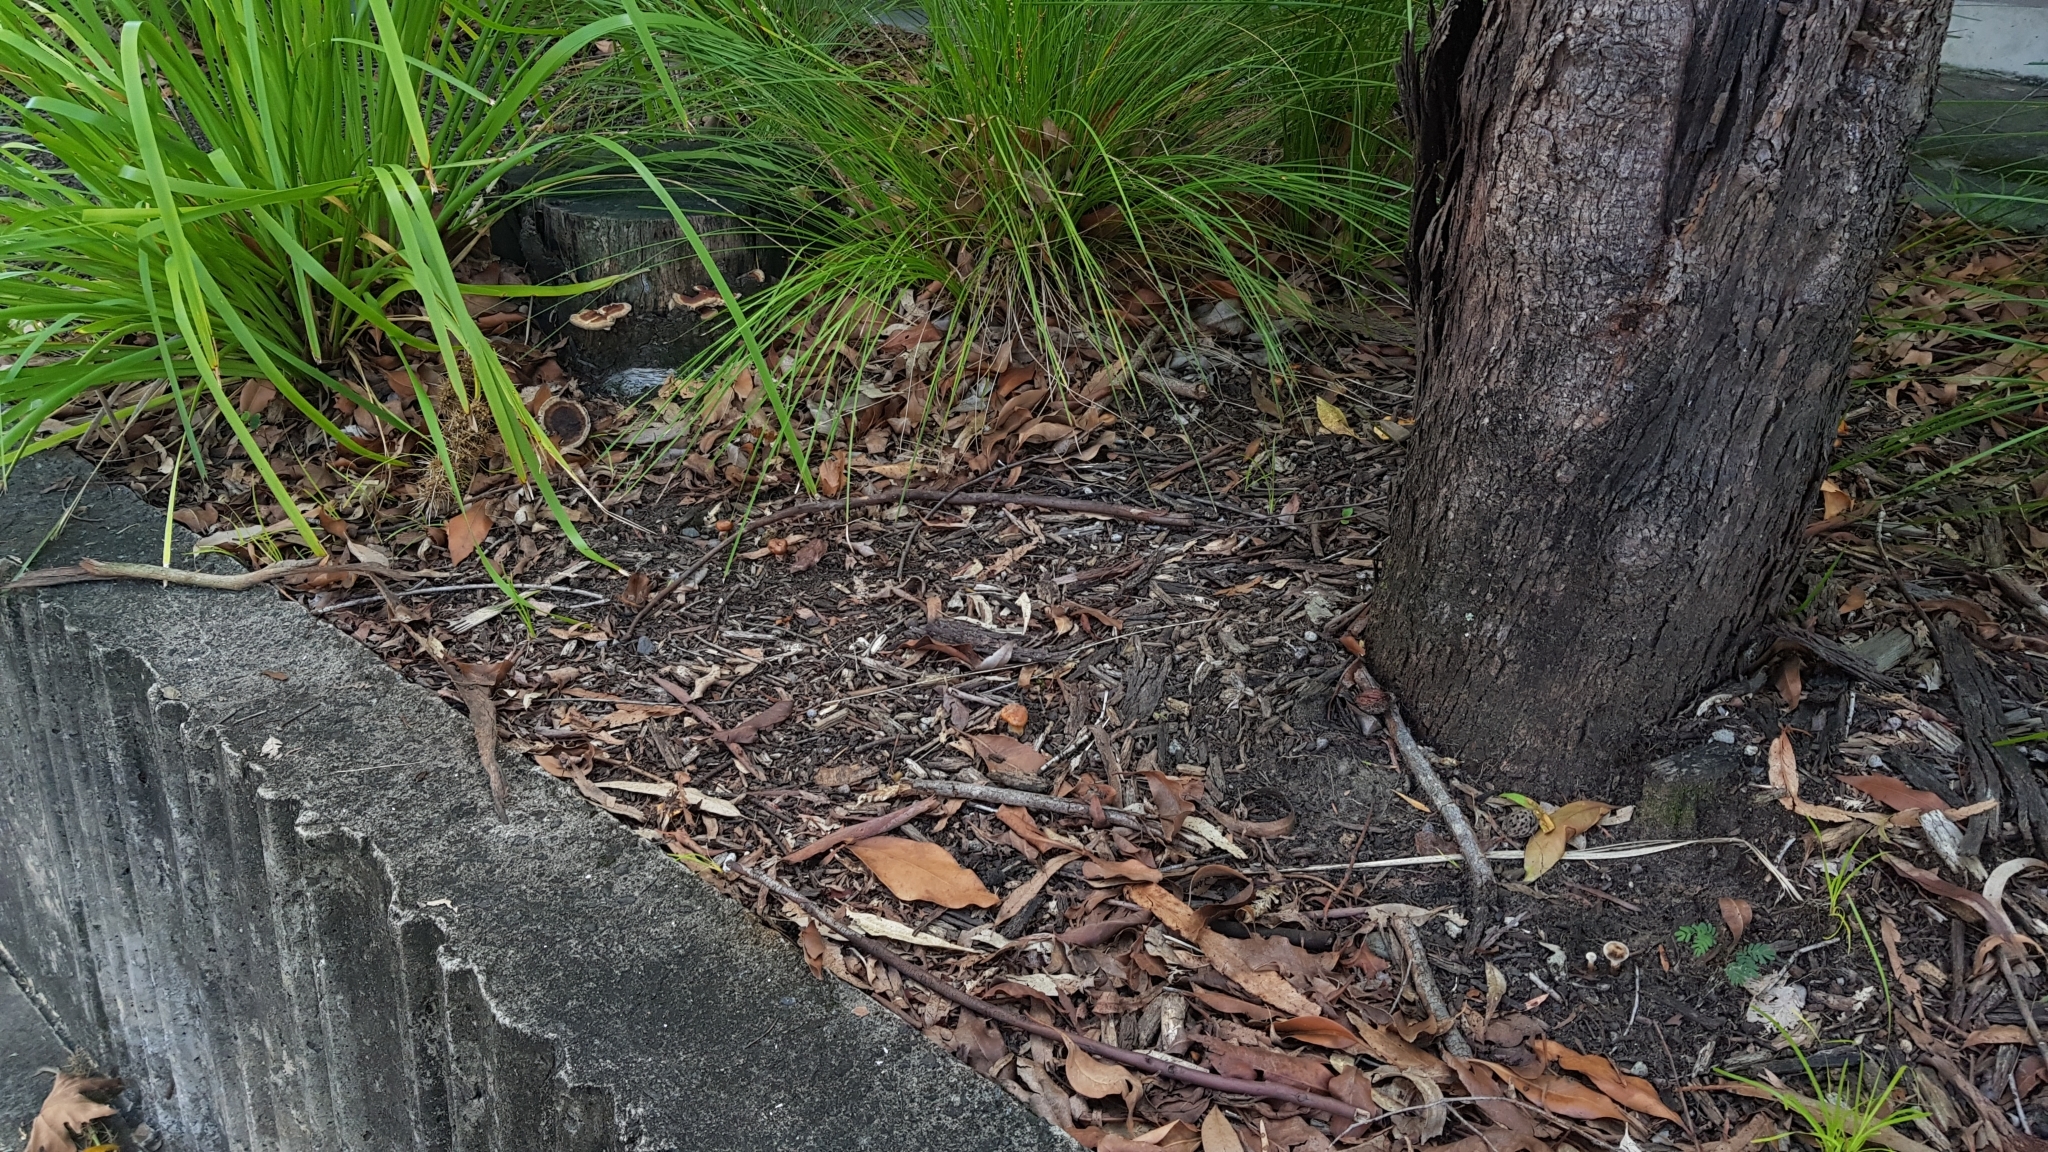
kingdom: Fungi
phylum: Basidiomycota
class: Agaricomycetes
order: Polyporales
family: Ganodermataceae
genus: Sanguinoderma
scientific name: Sanguinoderma rude
